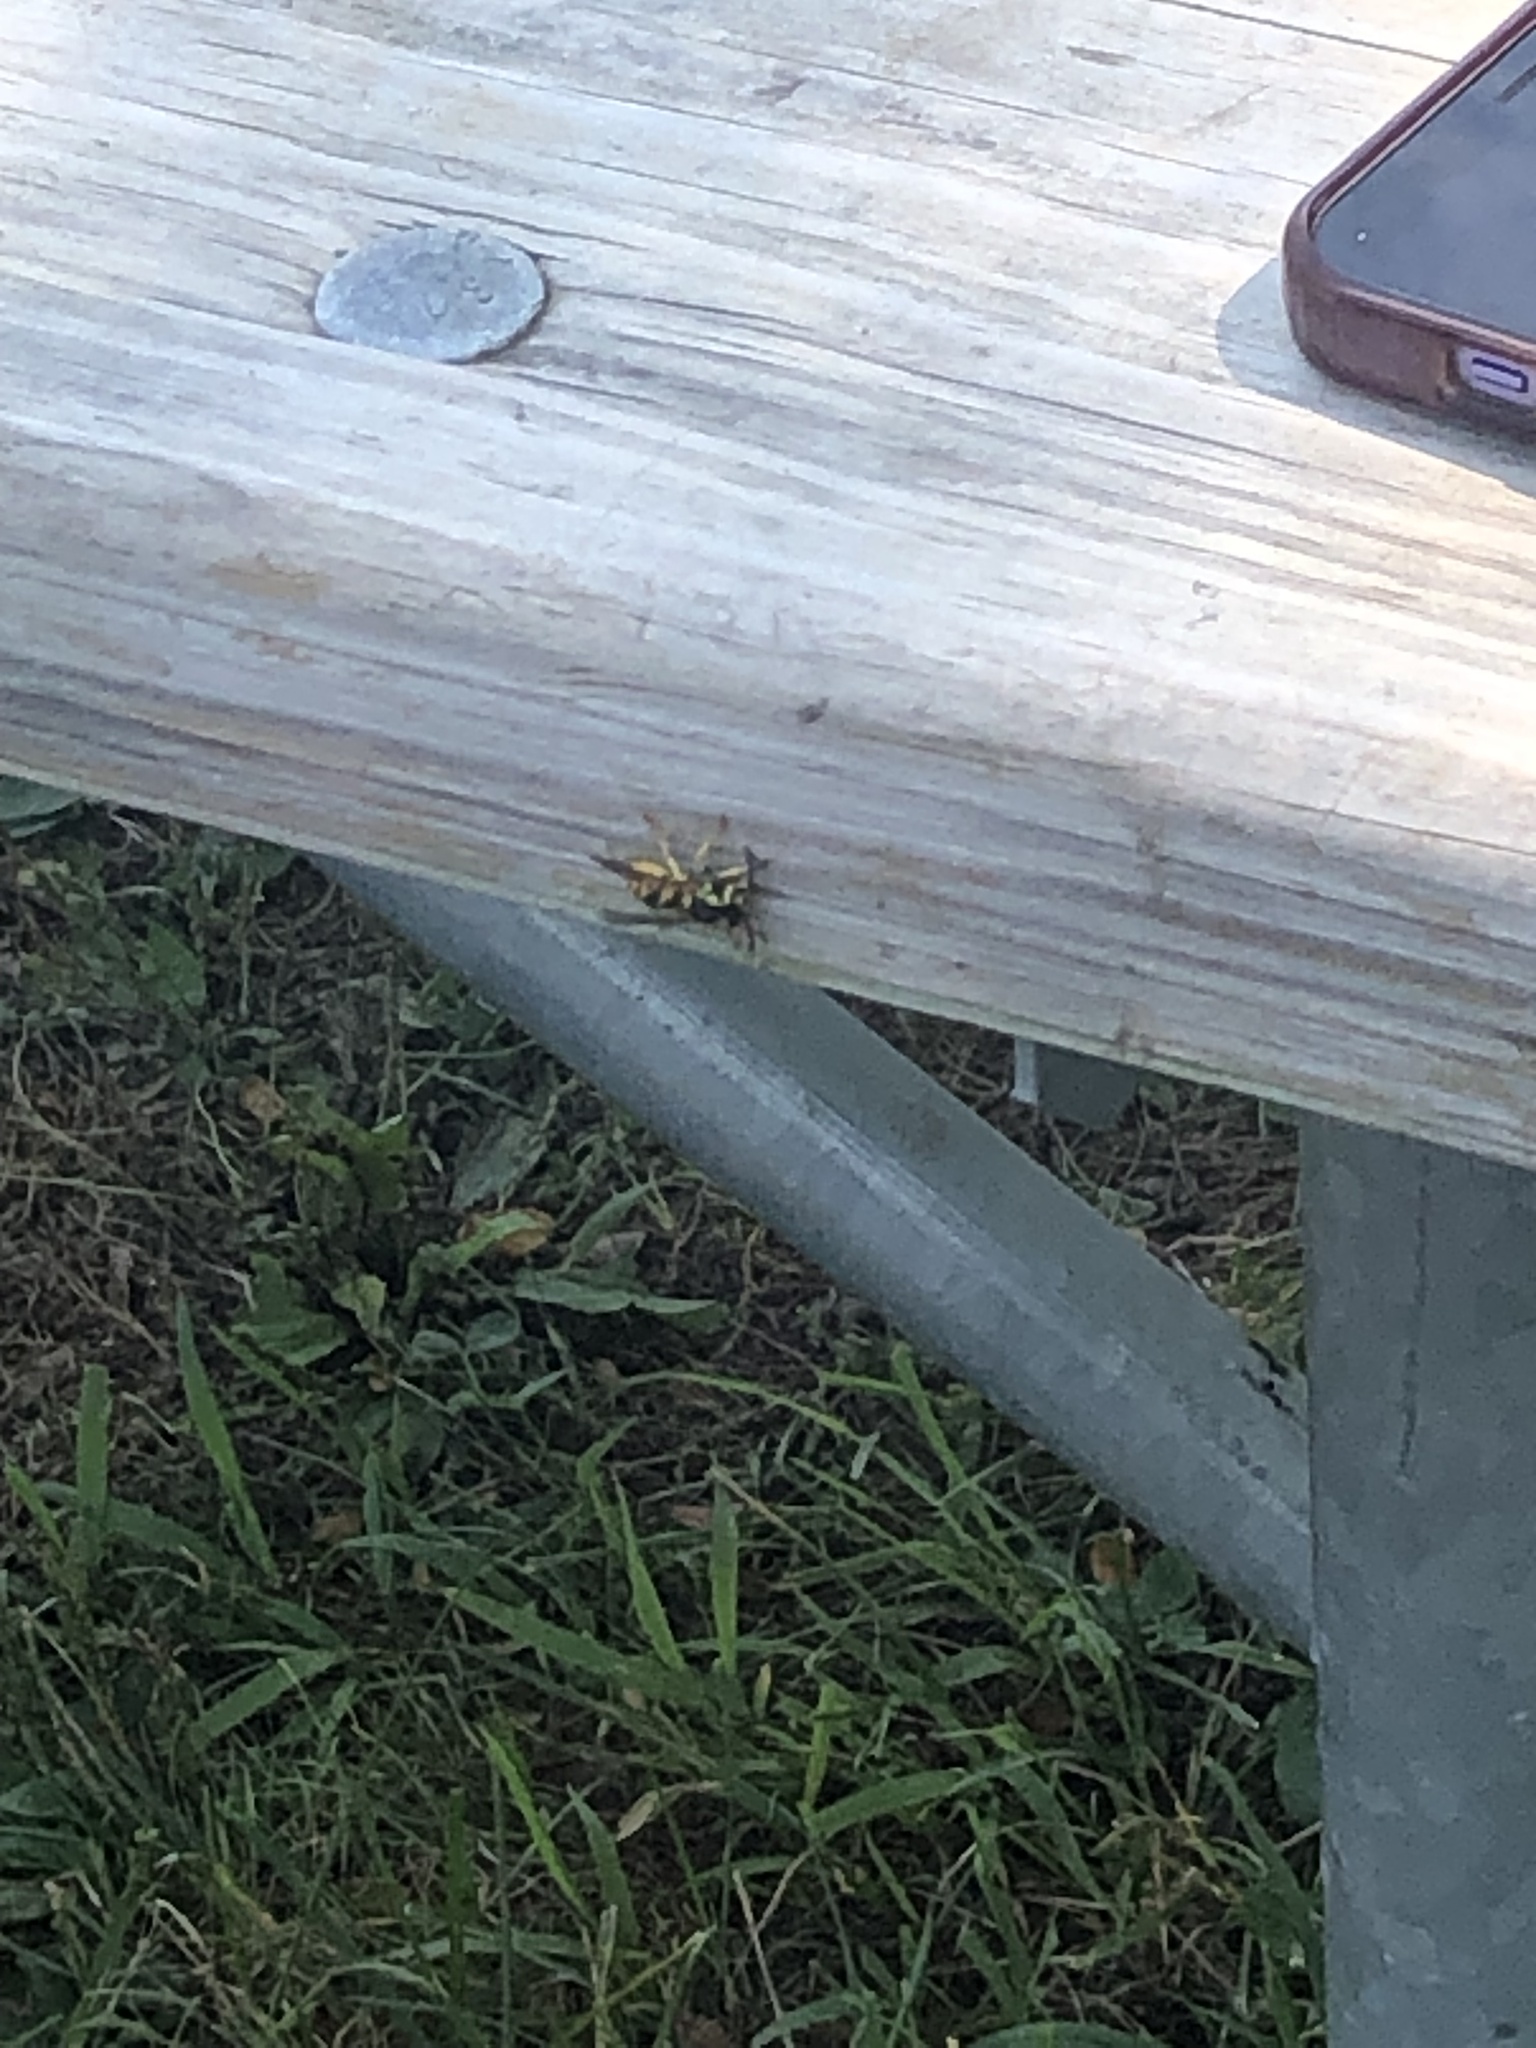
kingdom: Animalia
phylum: Arthropoda
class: Insecta
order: Hymenoptera
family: Vespidae
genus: Vespula
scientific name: Vespula
